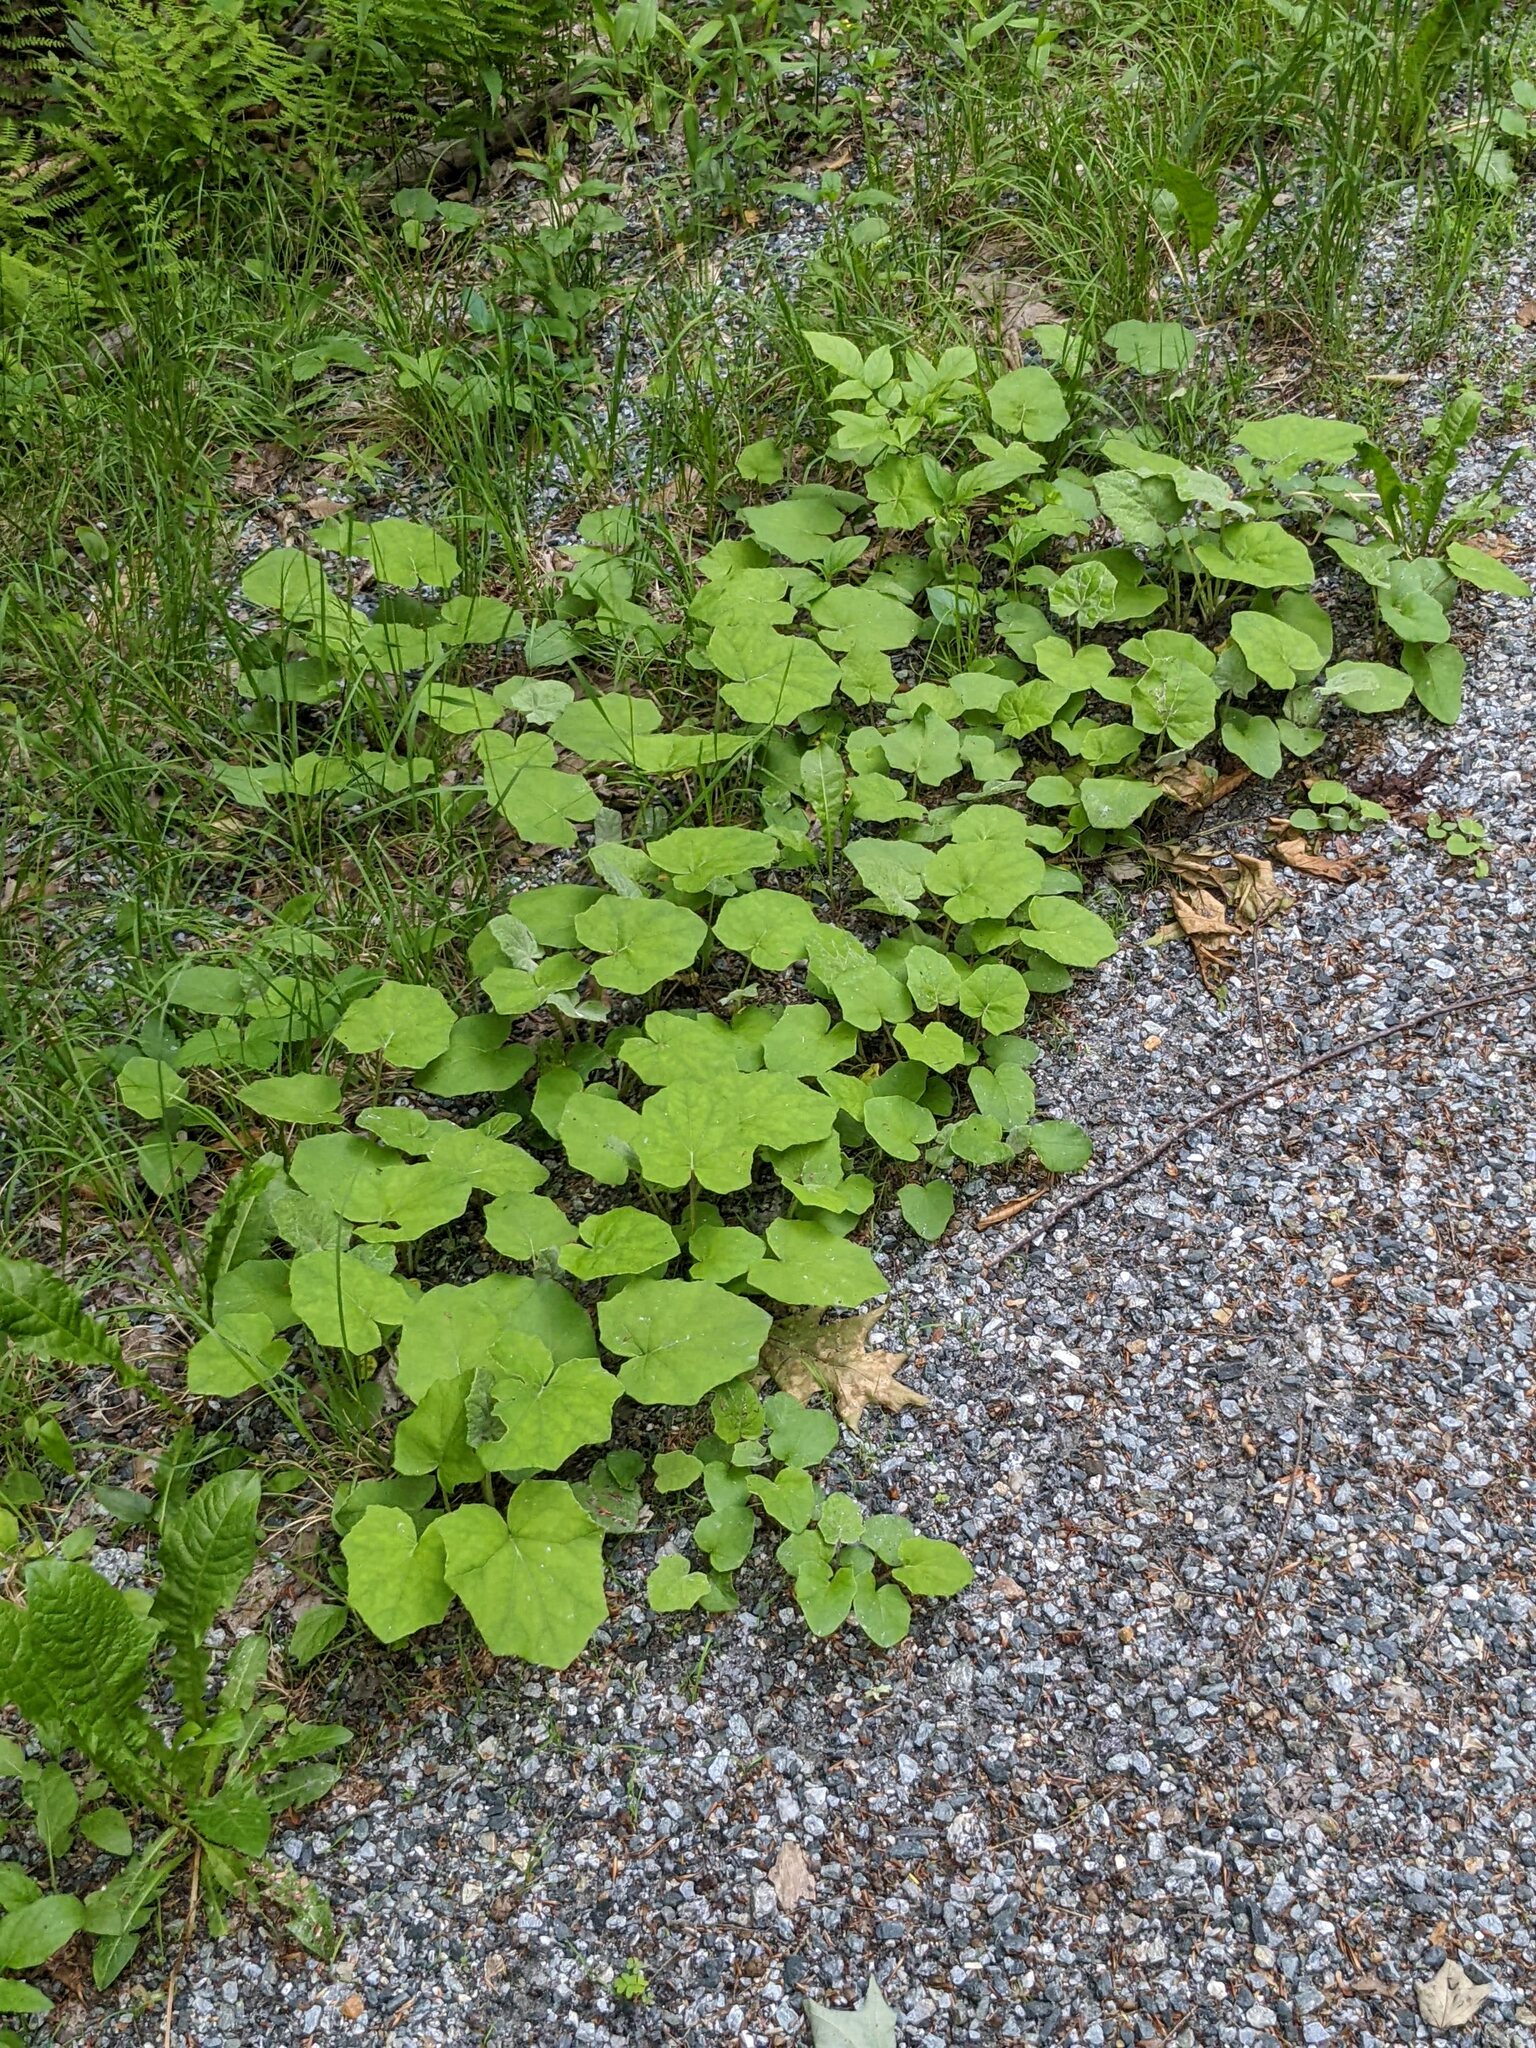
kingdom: Plantae
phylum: Tracheophyta
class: Magnoliopsida
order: Asterales
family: Asteraceae
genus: Tussilago
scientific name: Tussilago farfara
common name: Coltsfoot
